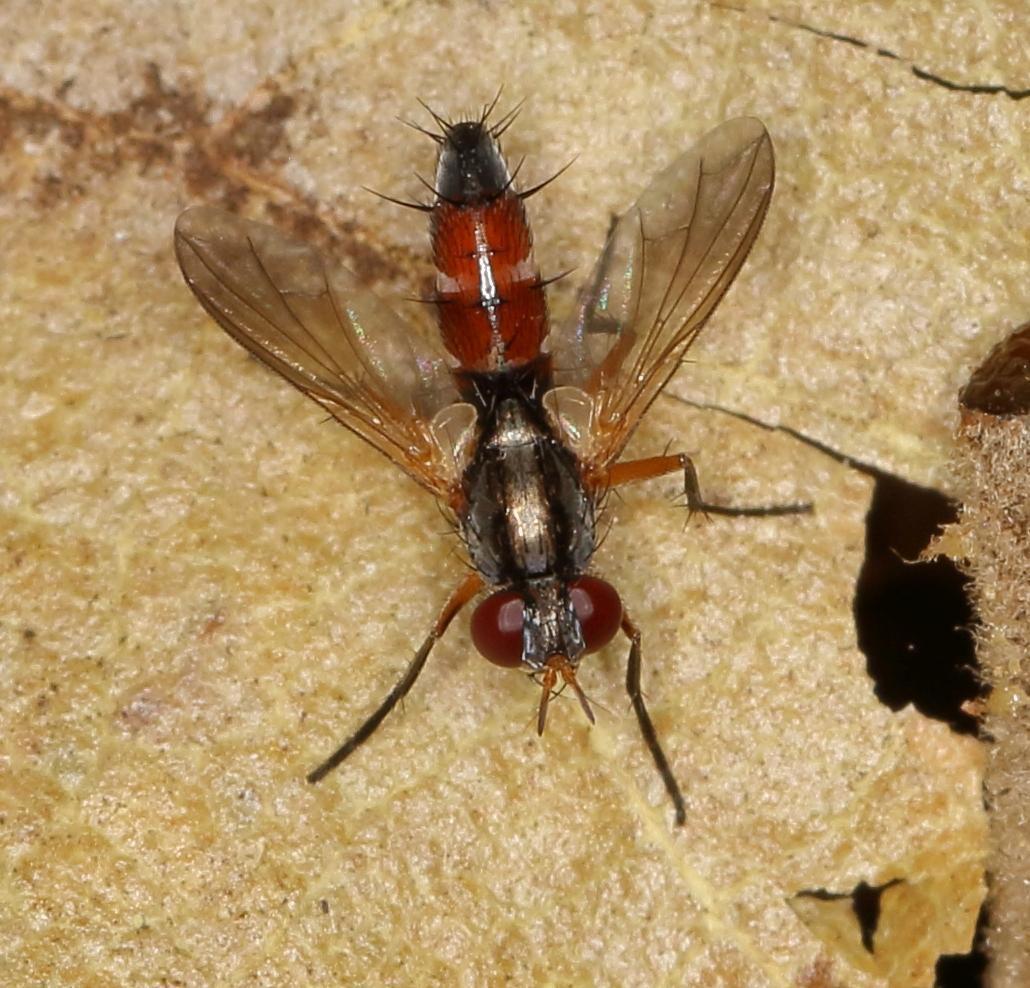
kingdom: Animalia
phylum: Arthropoda
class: Insecta
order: Diptera
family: Tachinidae
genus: Mintho
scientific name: Mintho flavicoxa
